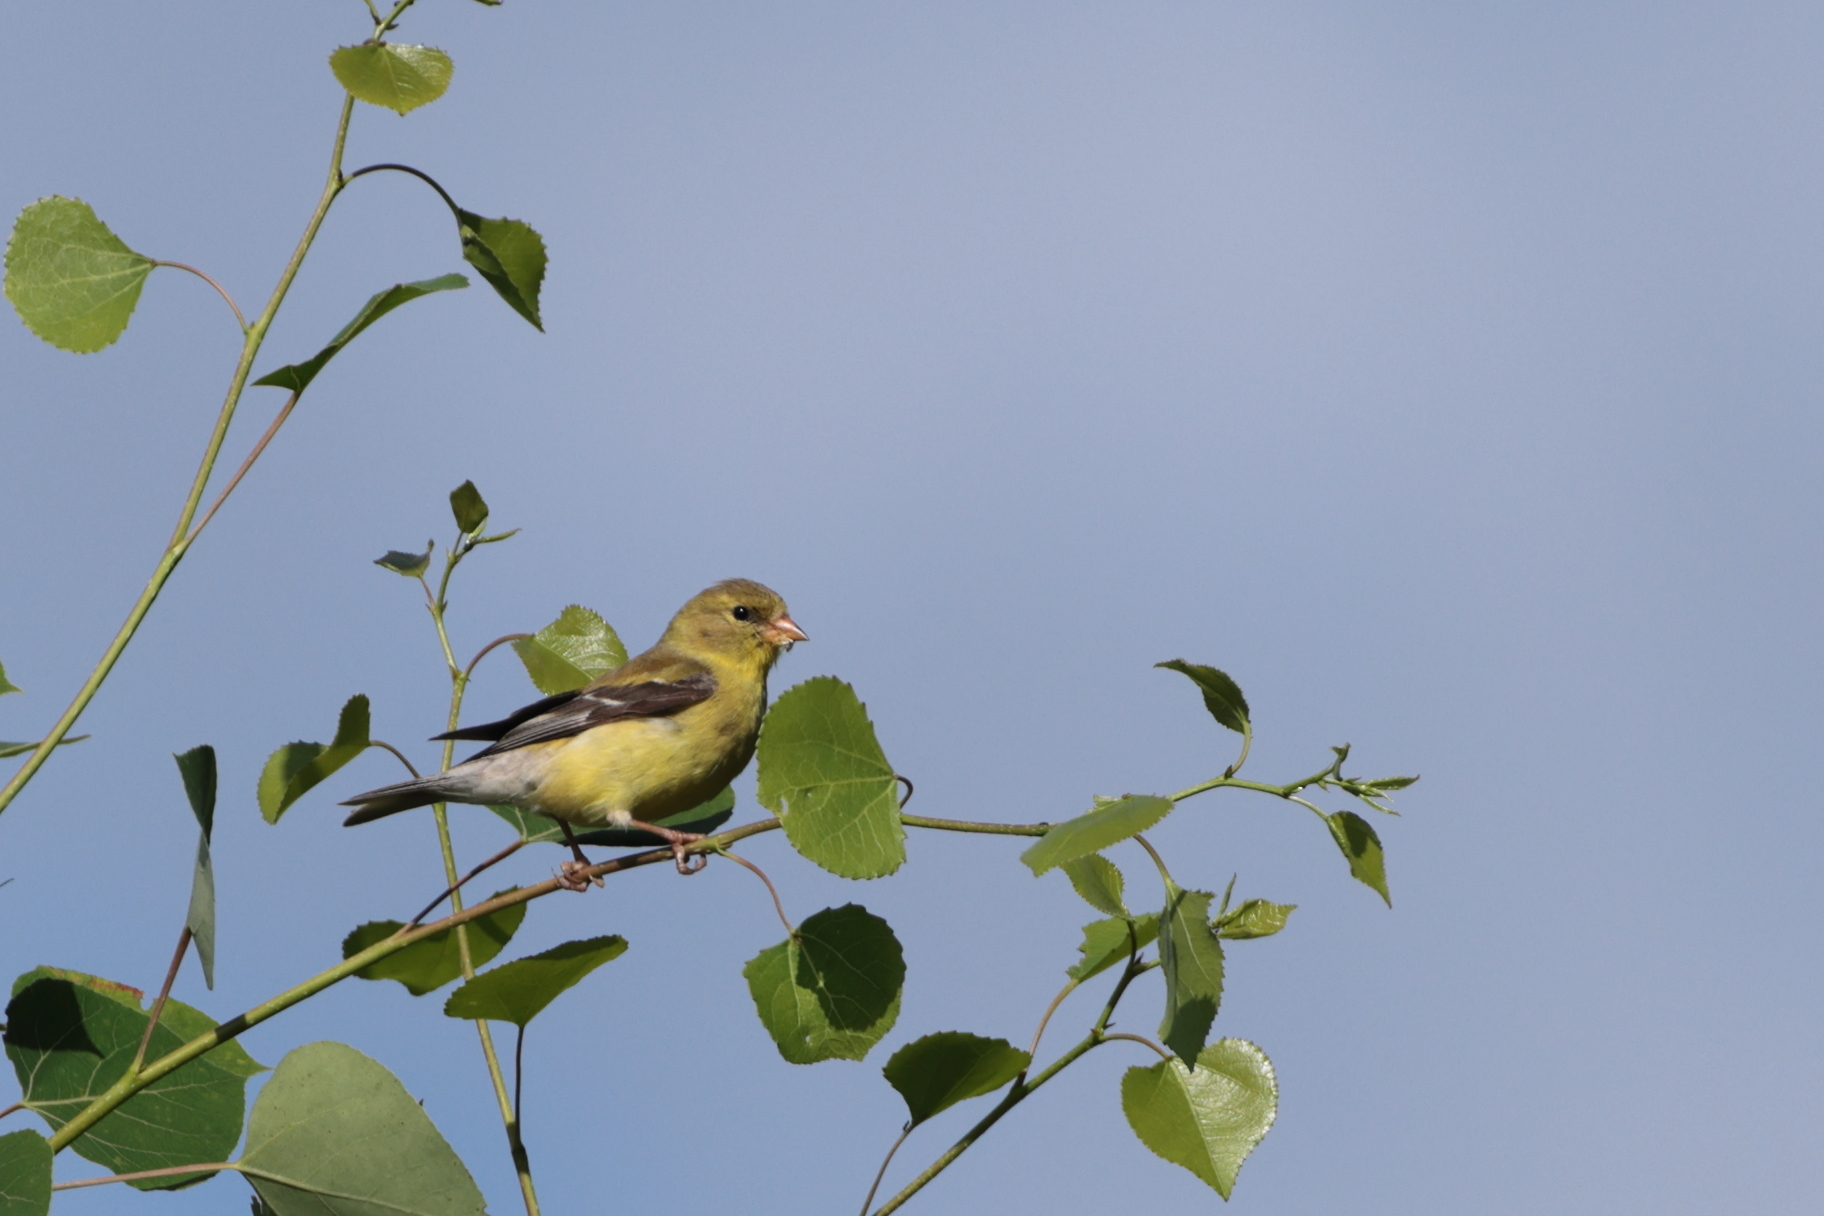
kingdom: Animalia
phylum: Chordata
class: Aves
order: Passeriformes
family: Fringillidae
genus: Spinus
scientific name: Spinus tristis
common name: American goldfinch
